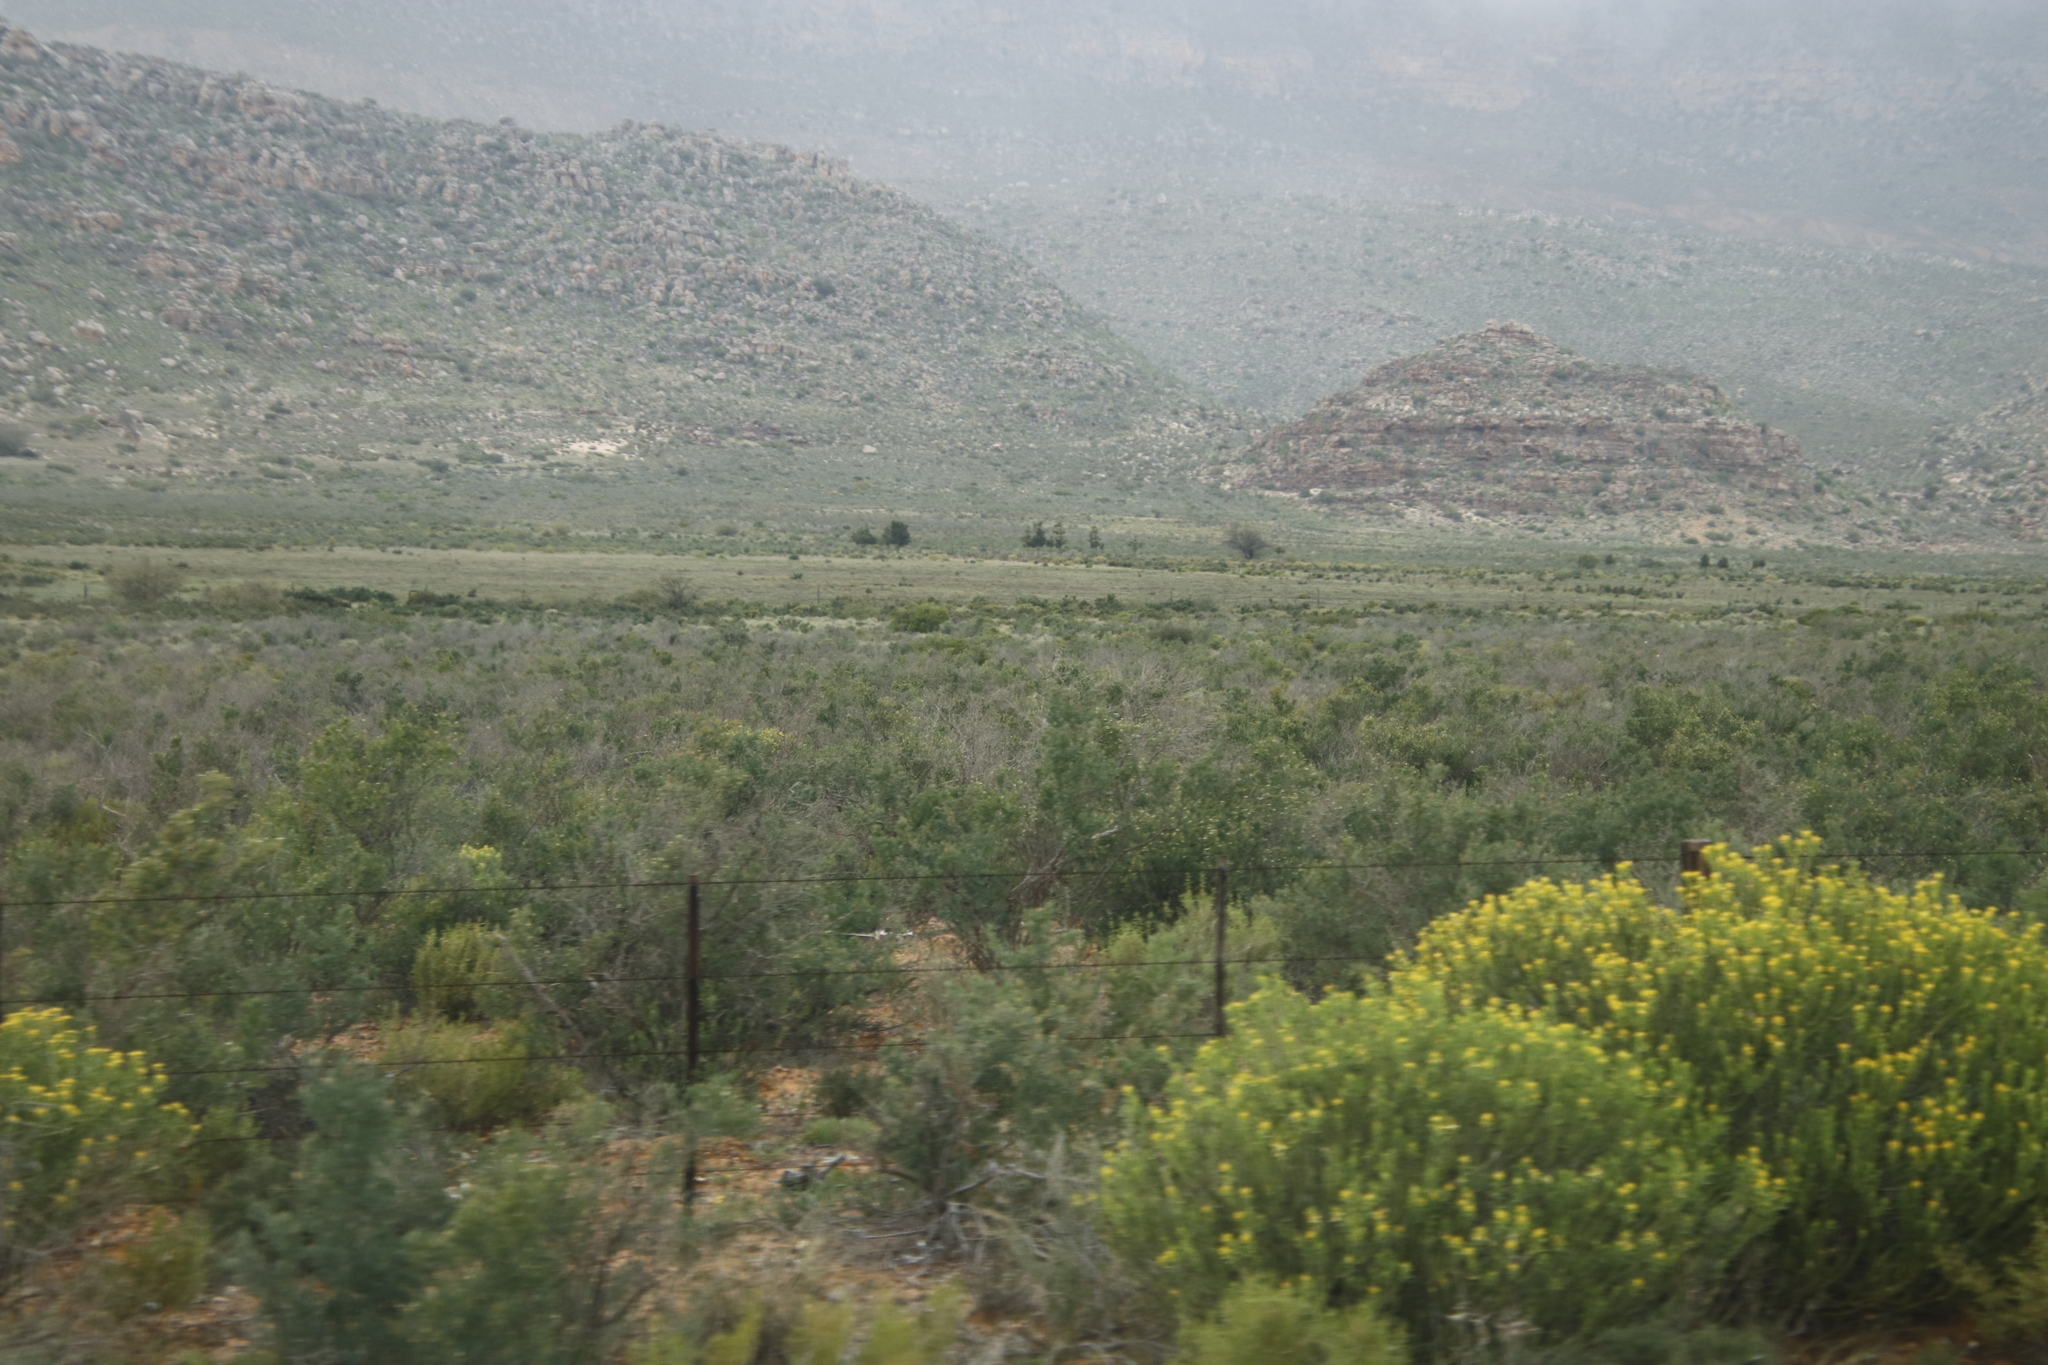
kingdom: Plantae
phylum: Tracheophyta
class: Magnoliopsida
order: Solanales
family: Montiniaceae
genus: Montinia
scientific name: Montinia caryophyllacea
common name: Wild clove-bush
